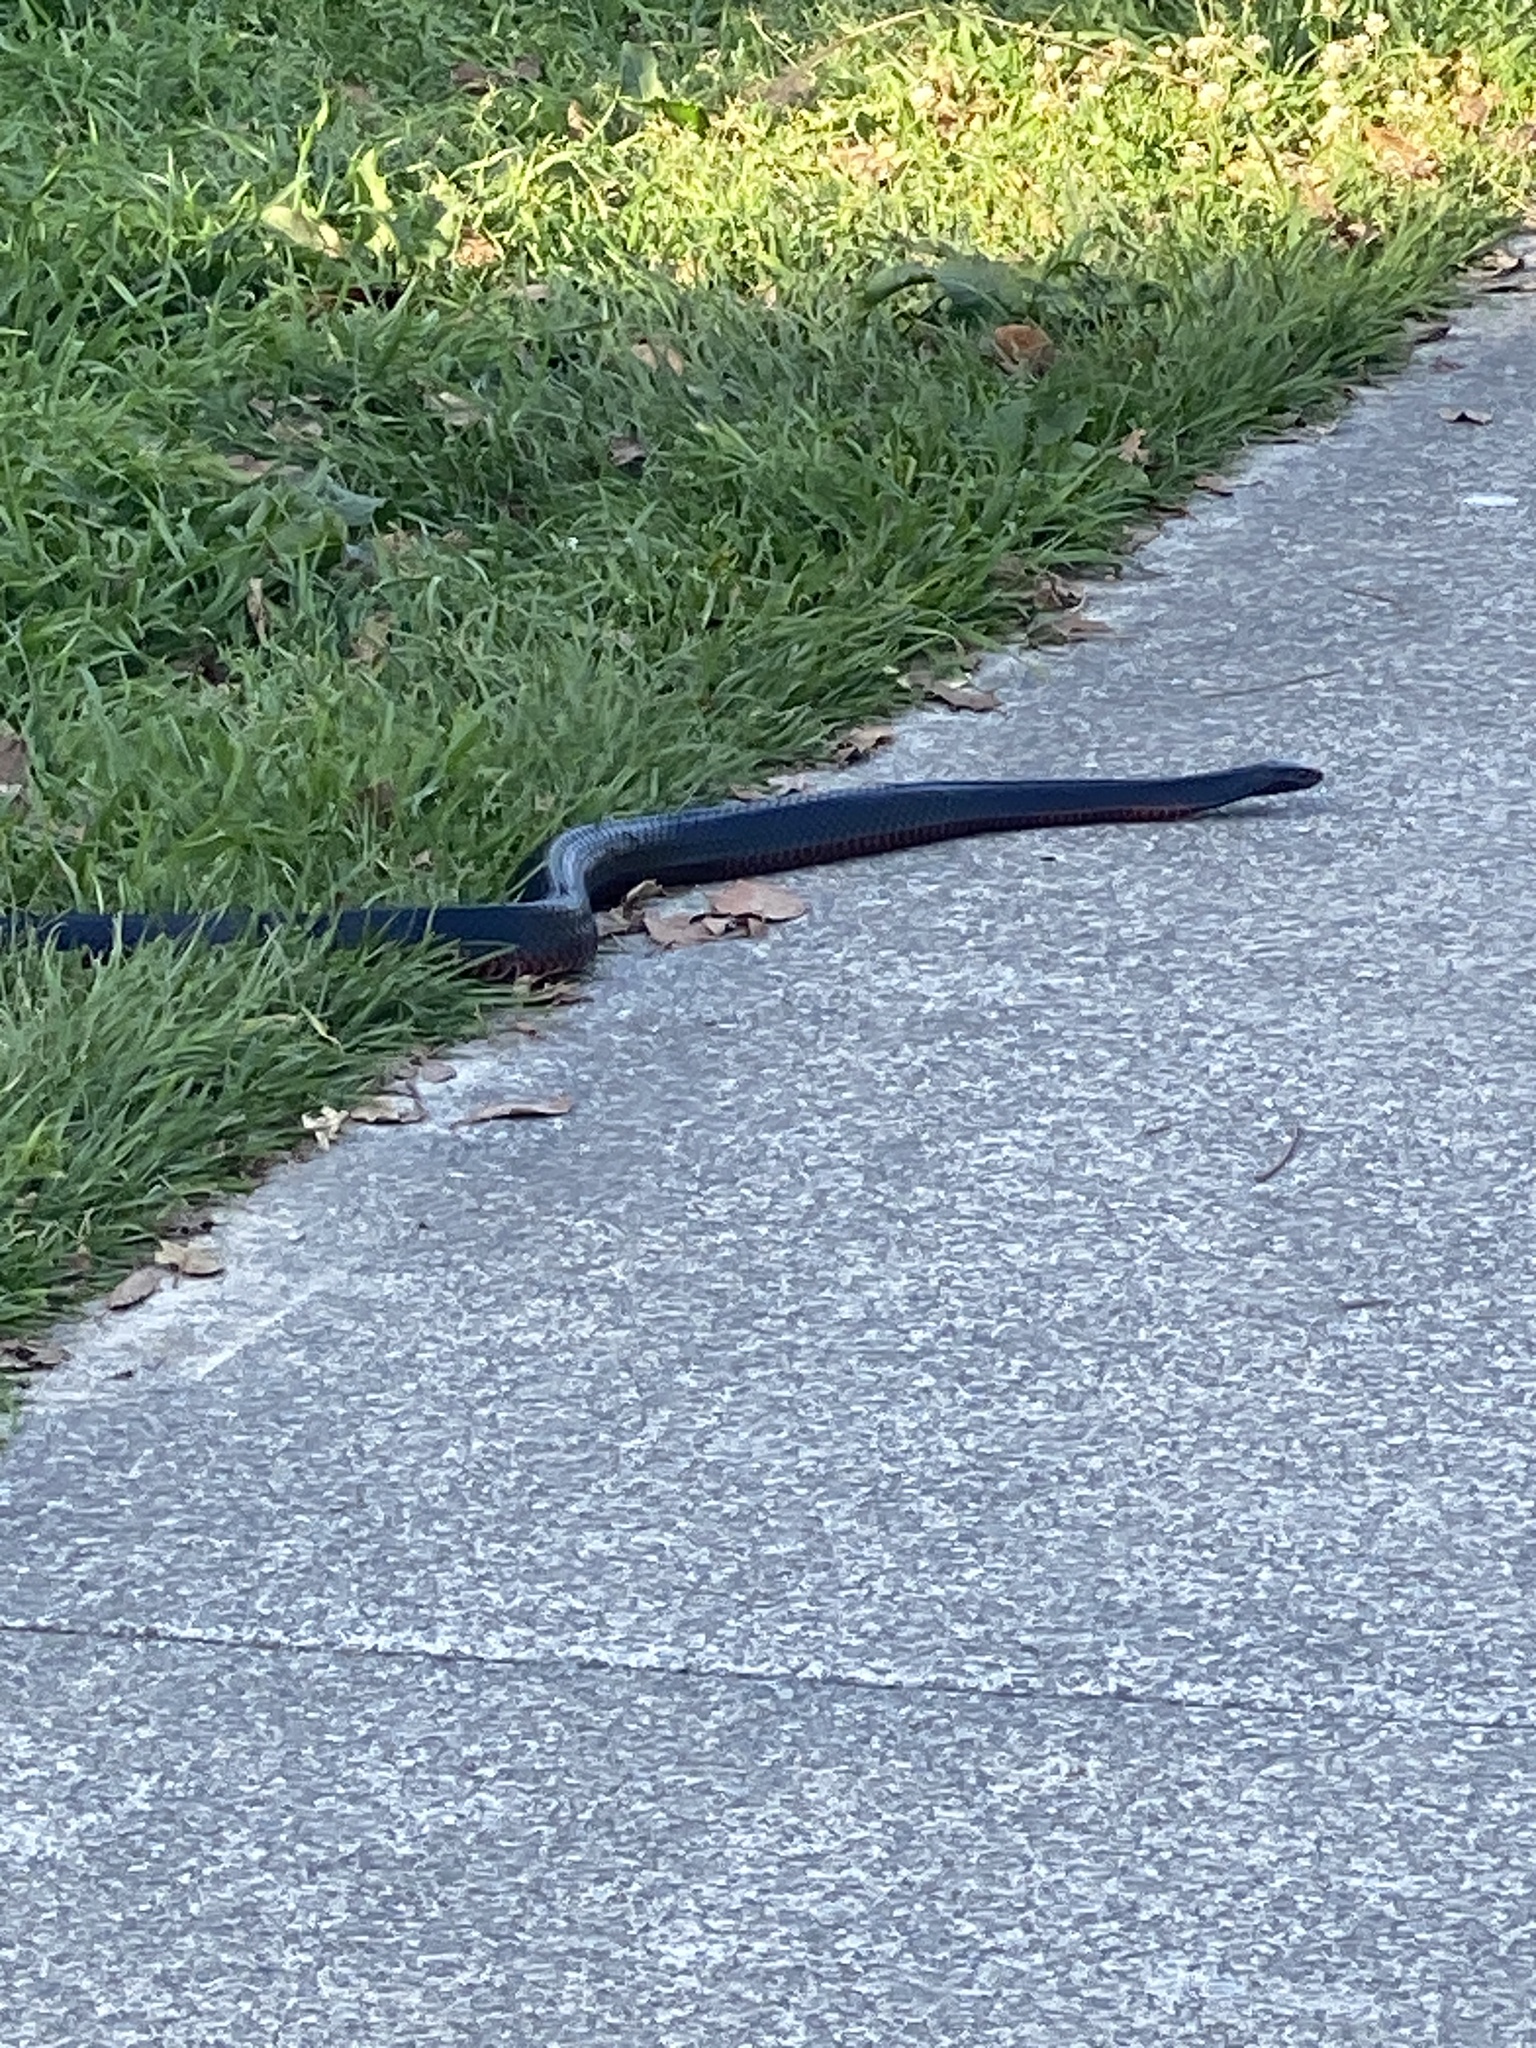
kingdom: Animalia
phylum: Chordata
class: Squamata
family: Elapidae
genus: Pseudechis
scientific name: Pseudechis porphyriacus
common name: Australian black snake
